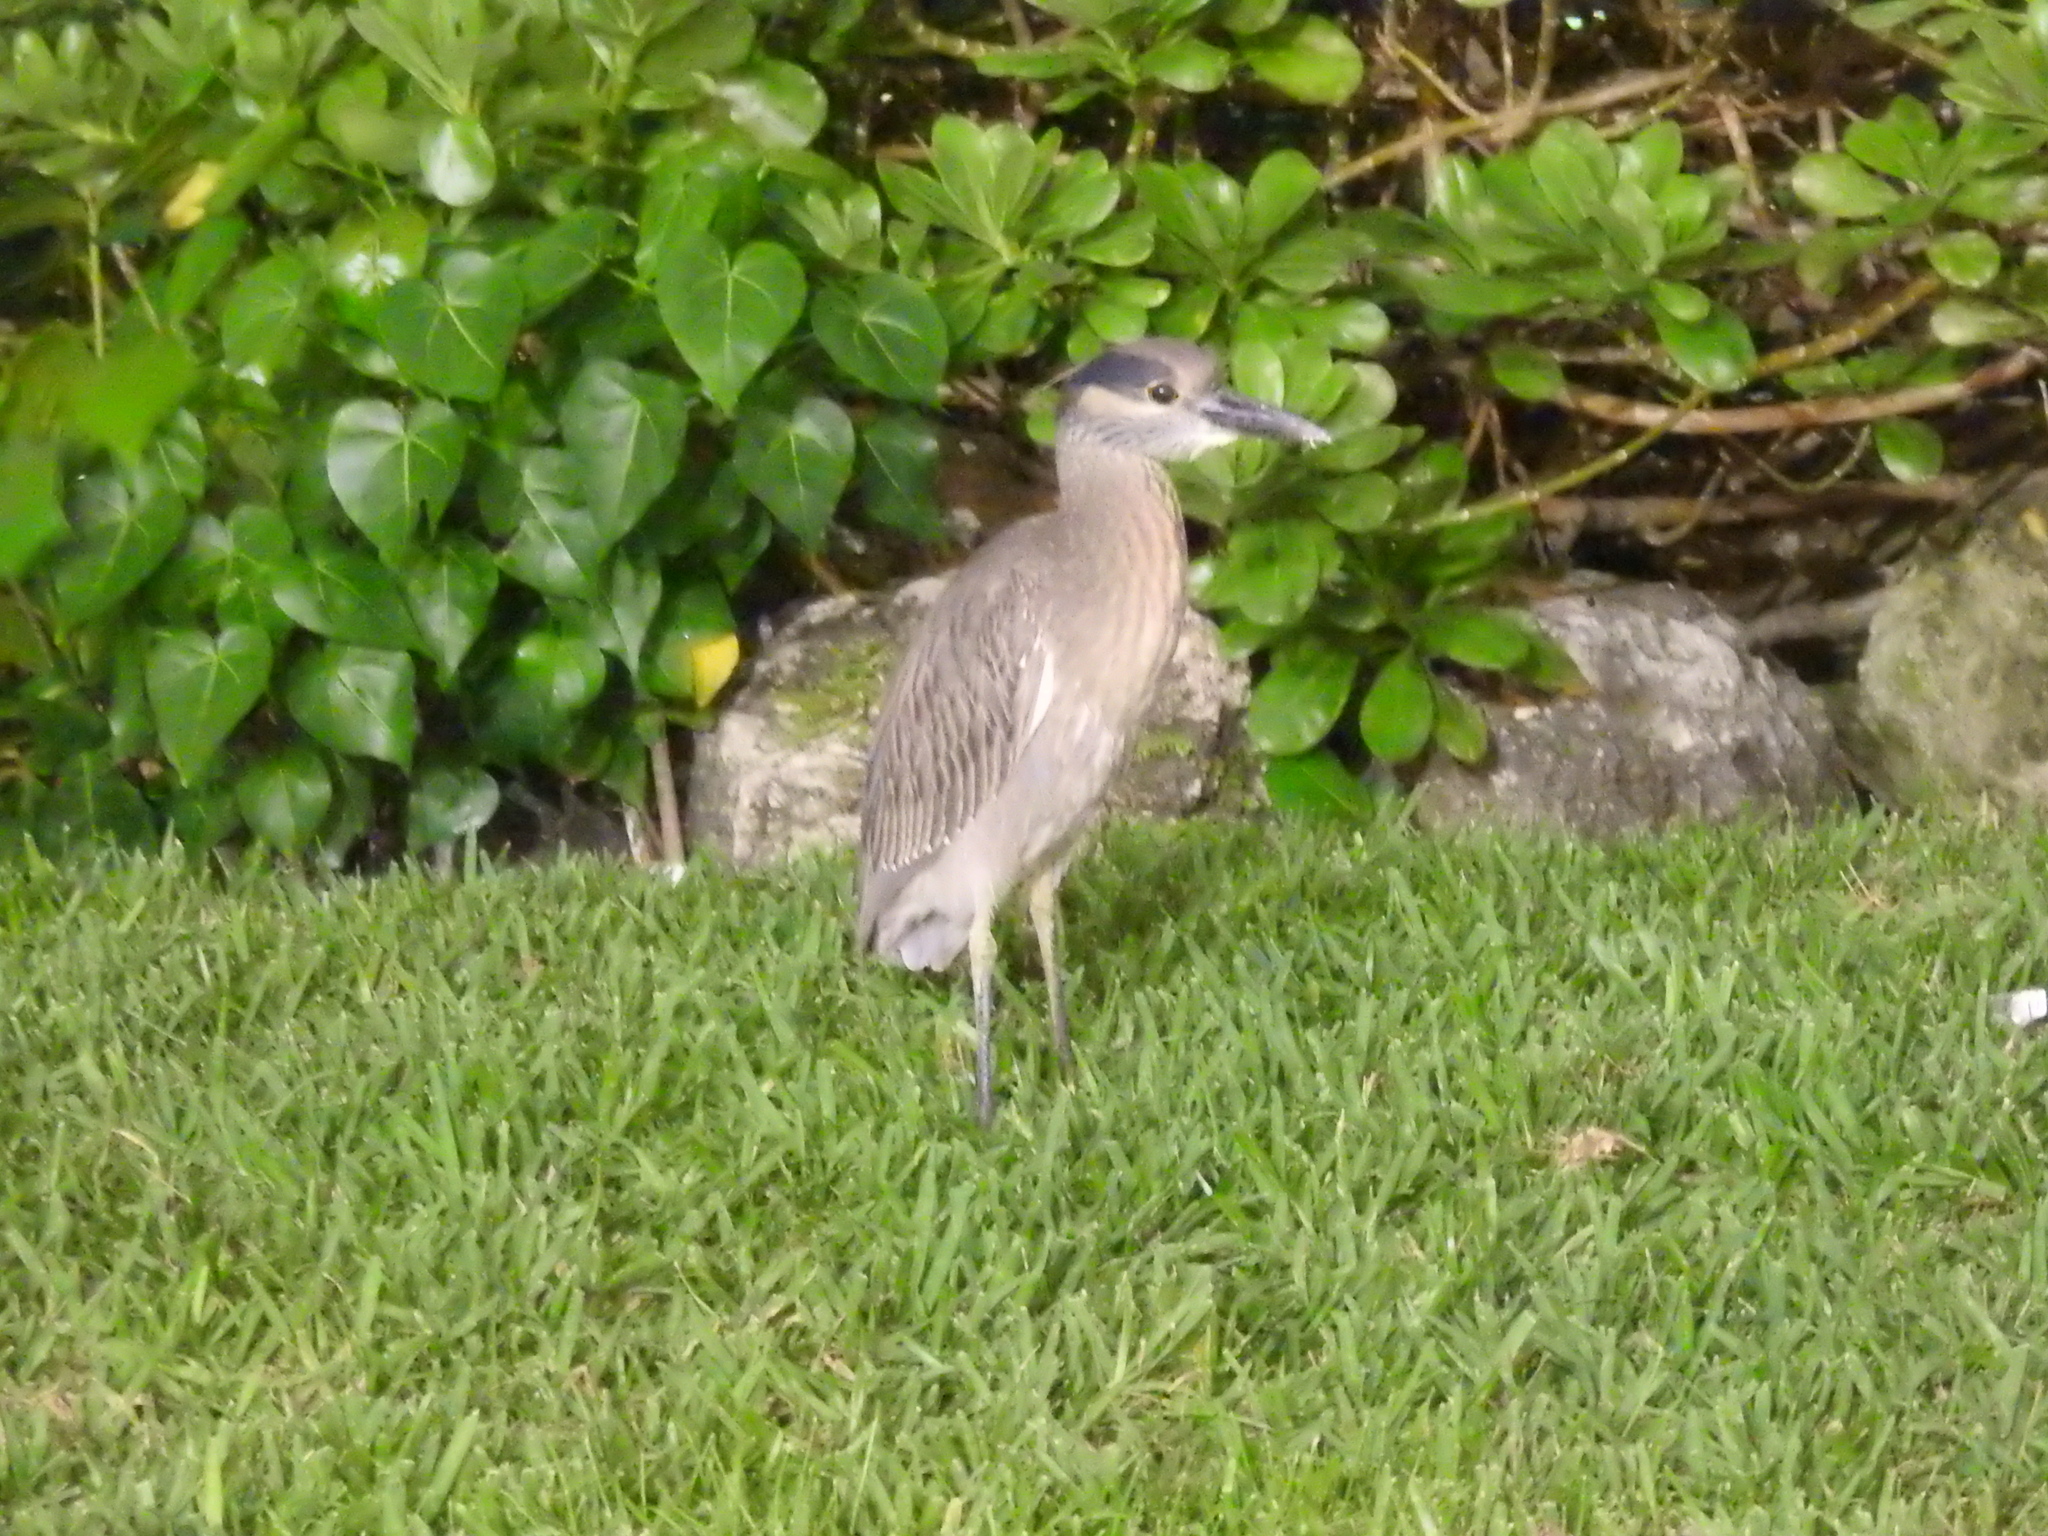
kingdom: Animalia
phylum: Chordata
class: Aves
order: Pelecaniformes
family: Ardeidae
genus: Nyctanassa
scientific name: Nyctanassa violacea
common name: Yellow-crowned night heron
